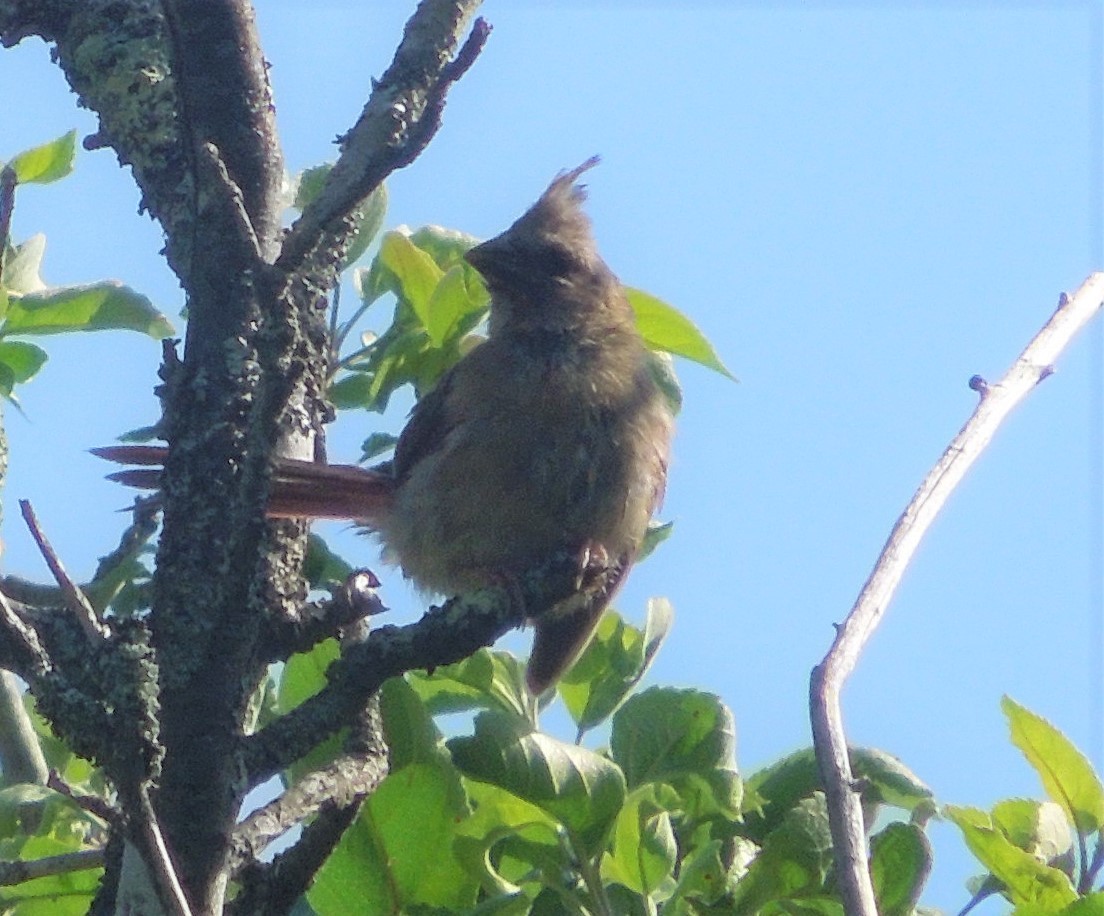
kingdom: Animalia
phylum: Chordata
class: Aves
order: Passeriformes
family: Cardinalidae
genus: Cardinalis
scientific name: Cardinalis cardinalis
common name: Northern cardinal
